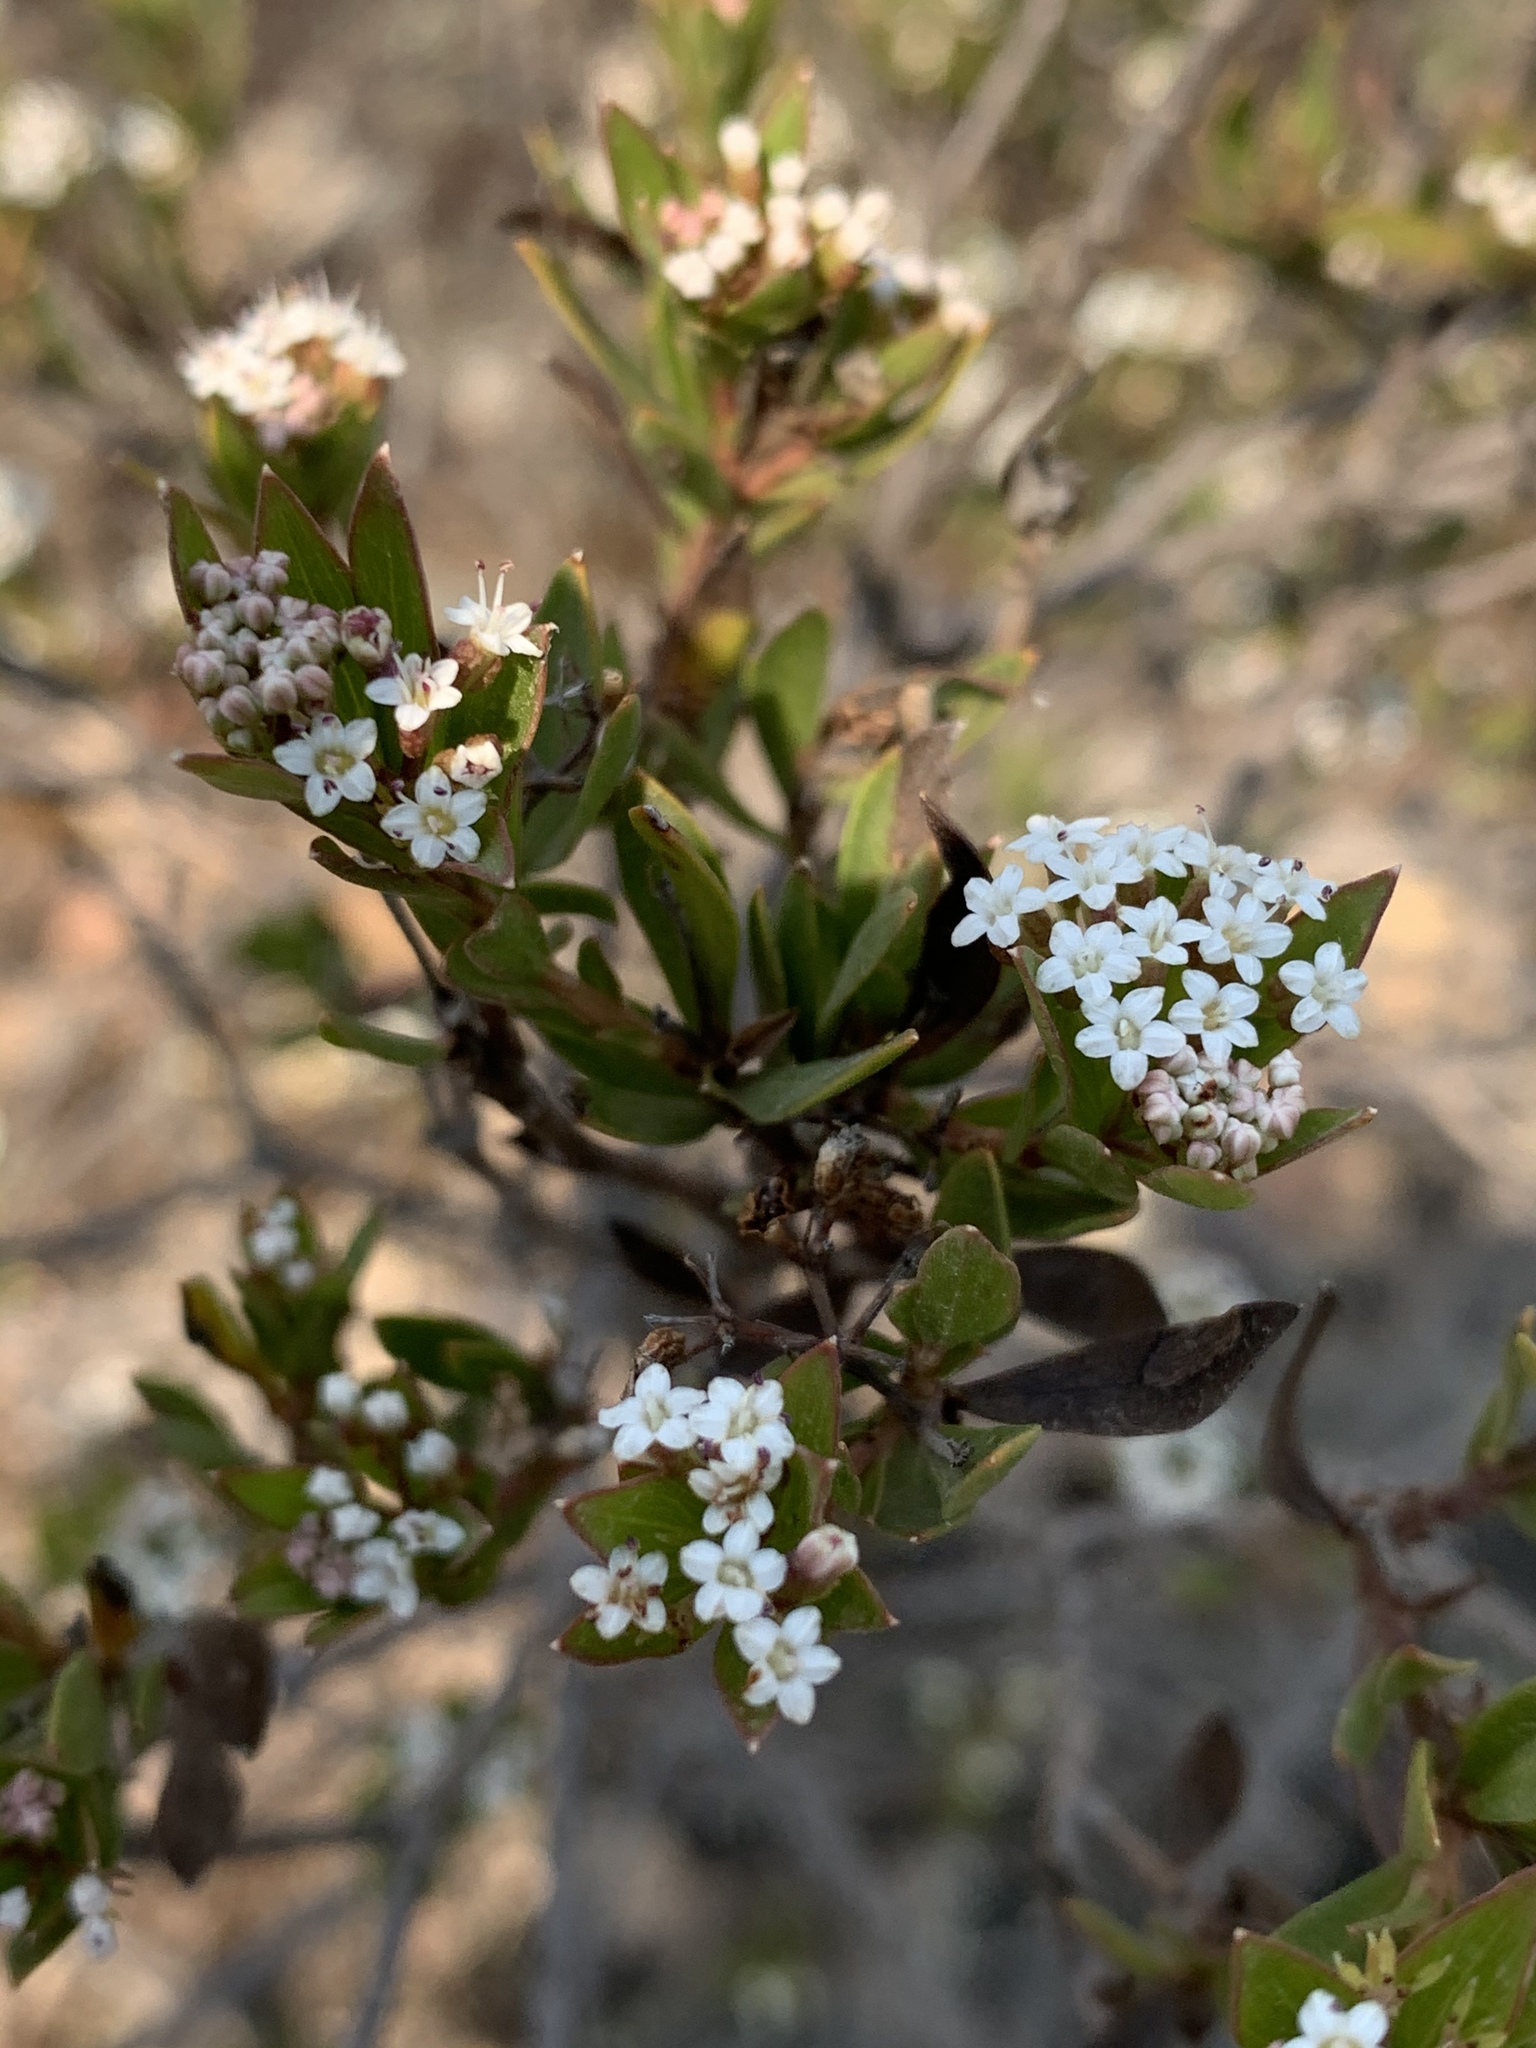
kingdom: Plantae
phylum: Tracheophyta
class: Magnoliopsida
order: Apiales
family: Apiaceae
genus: Platysace
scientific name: Platysace lanceolata
